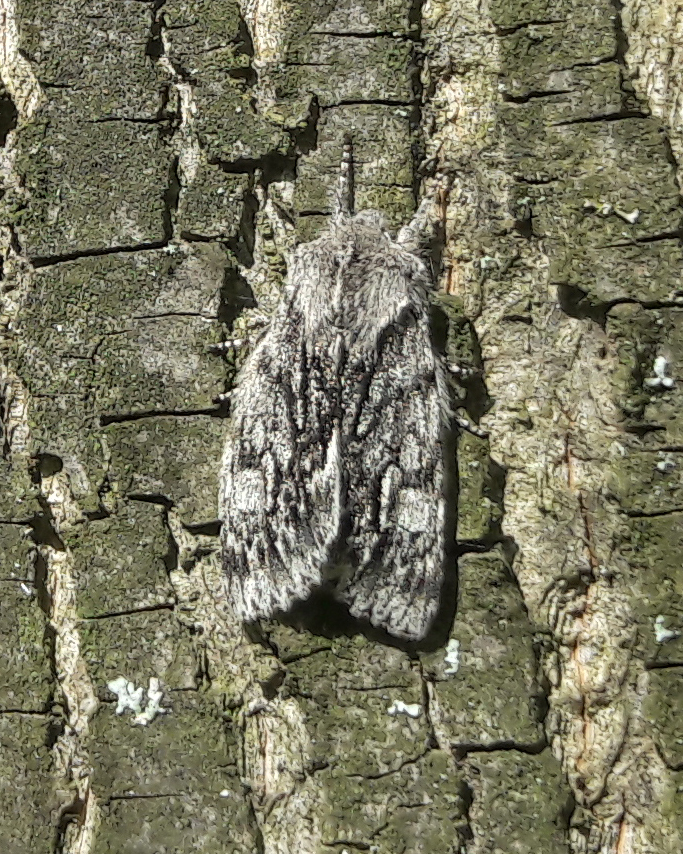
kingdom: Animalia
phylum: Arthropoda
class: Insecta
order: Lepidoptera
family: Noctuidae
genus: Brachionycha
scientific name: Brachionycha nubeculosa
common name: Rannoch sprawler
